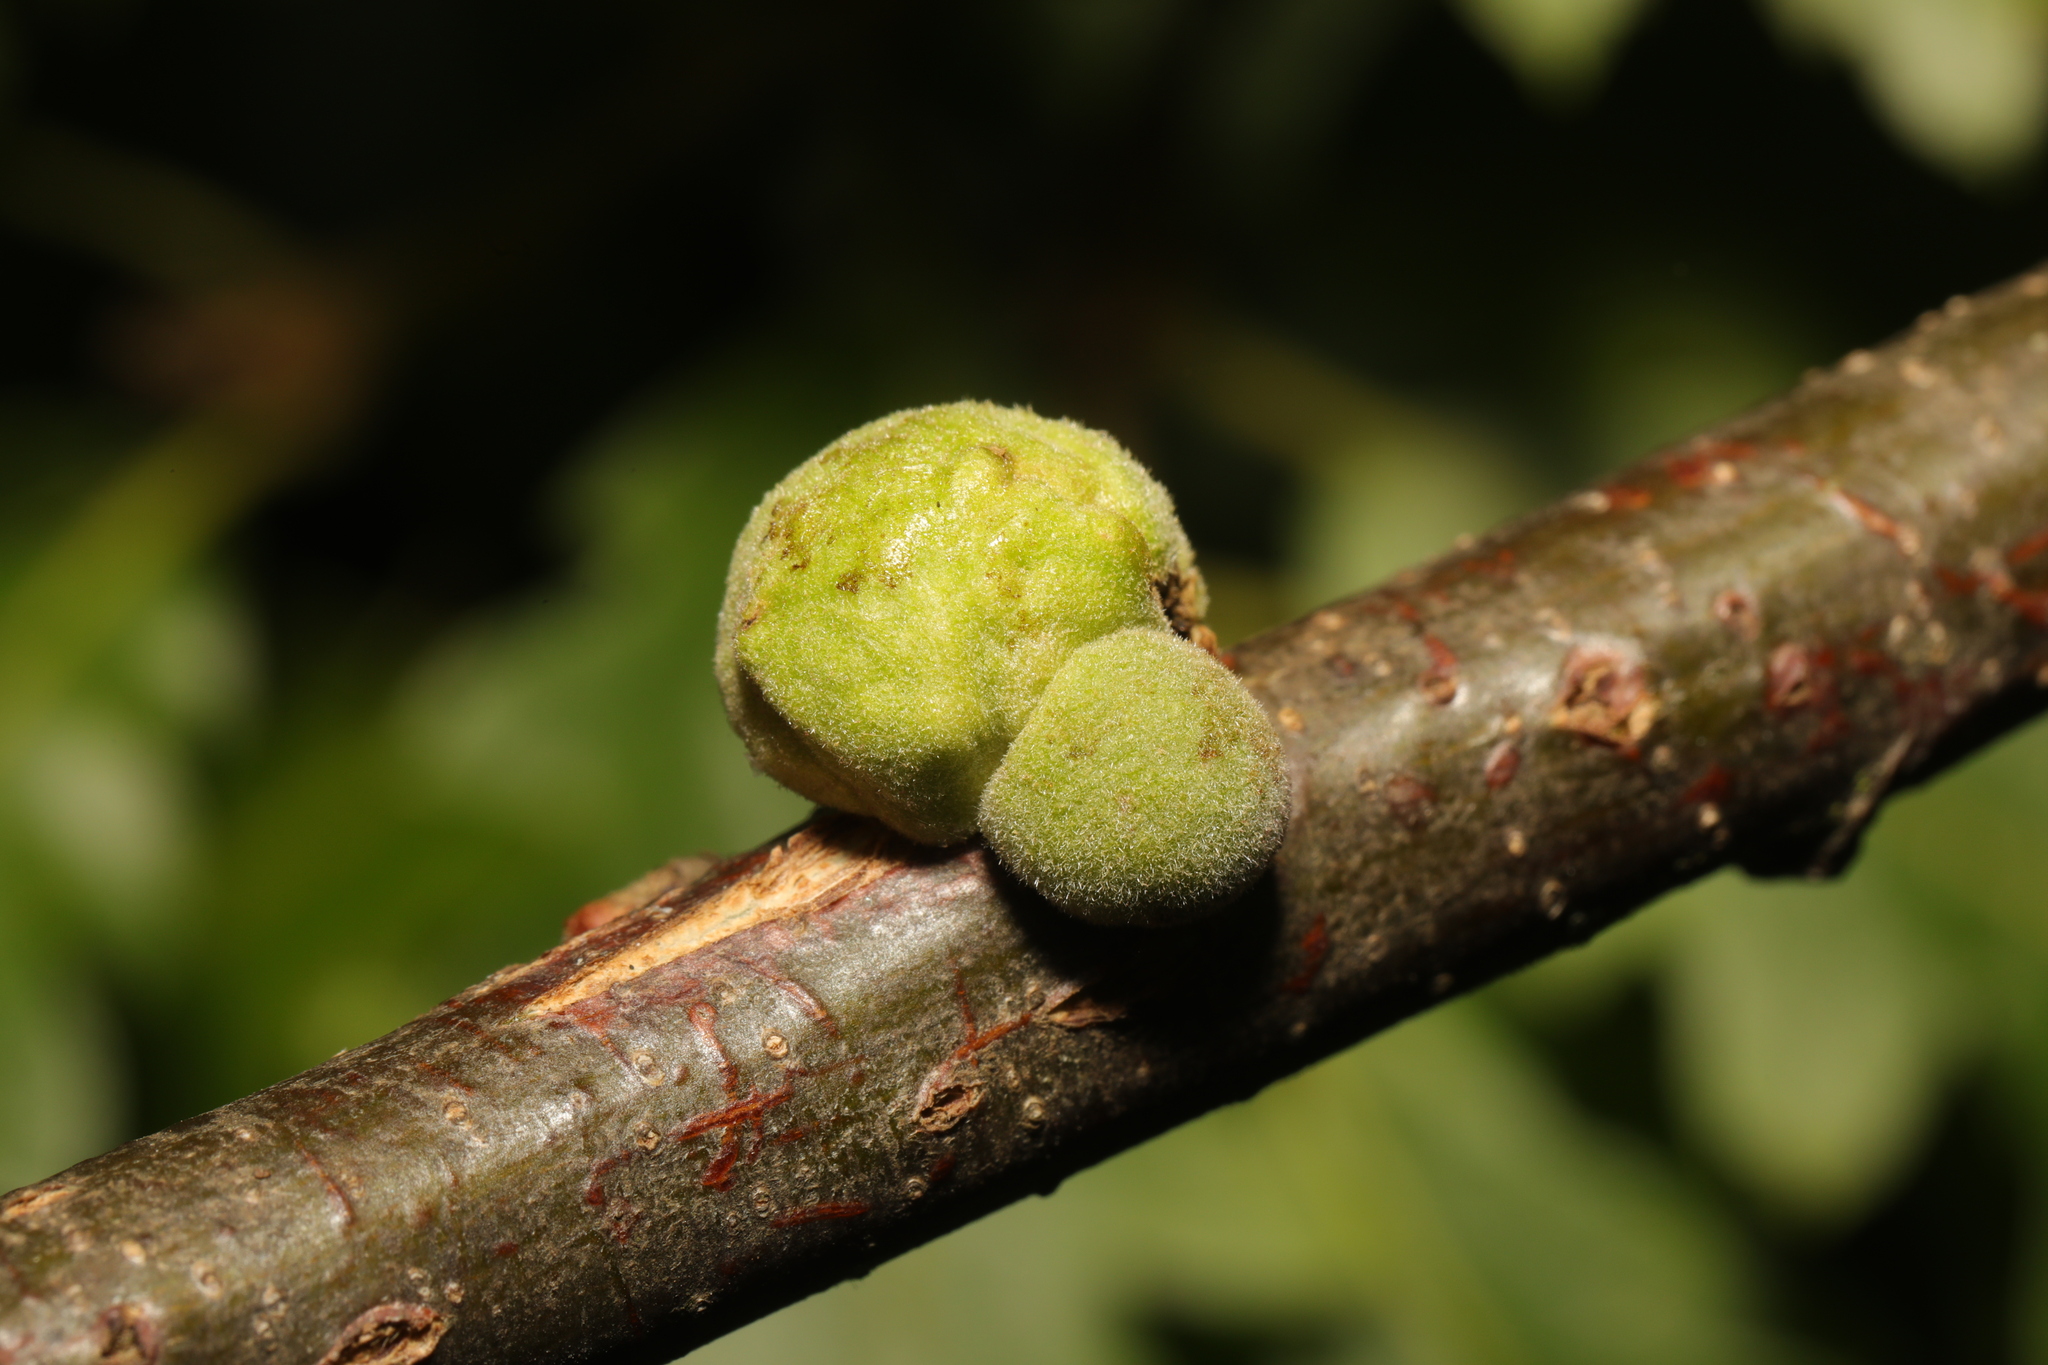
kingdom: Animalia
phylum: Arthropoda
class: Insecta
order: Hymenoptera
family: Cynipidae
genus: Aphelonyx
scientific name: Aphelonyx cerricola
